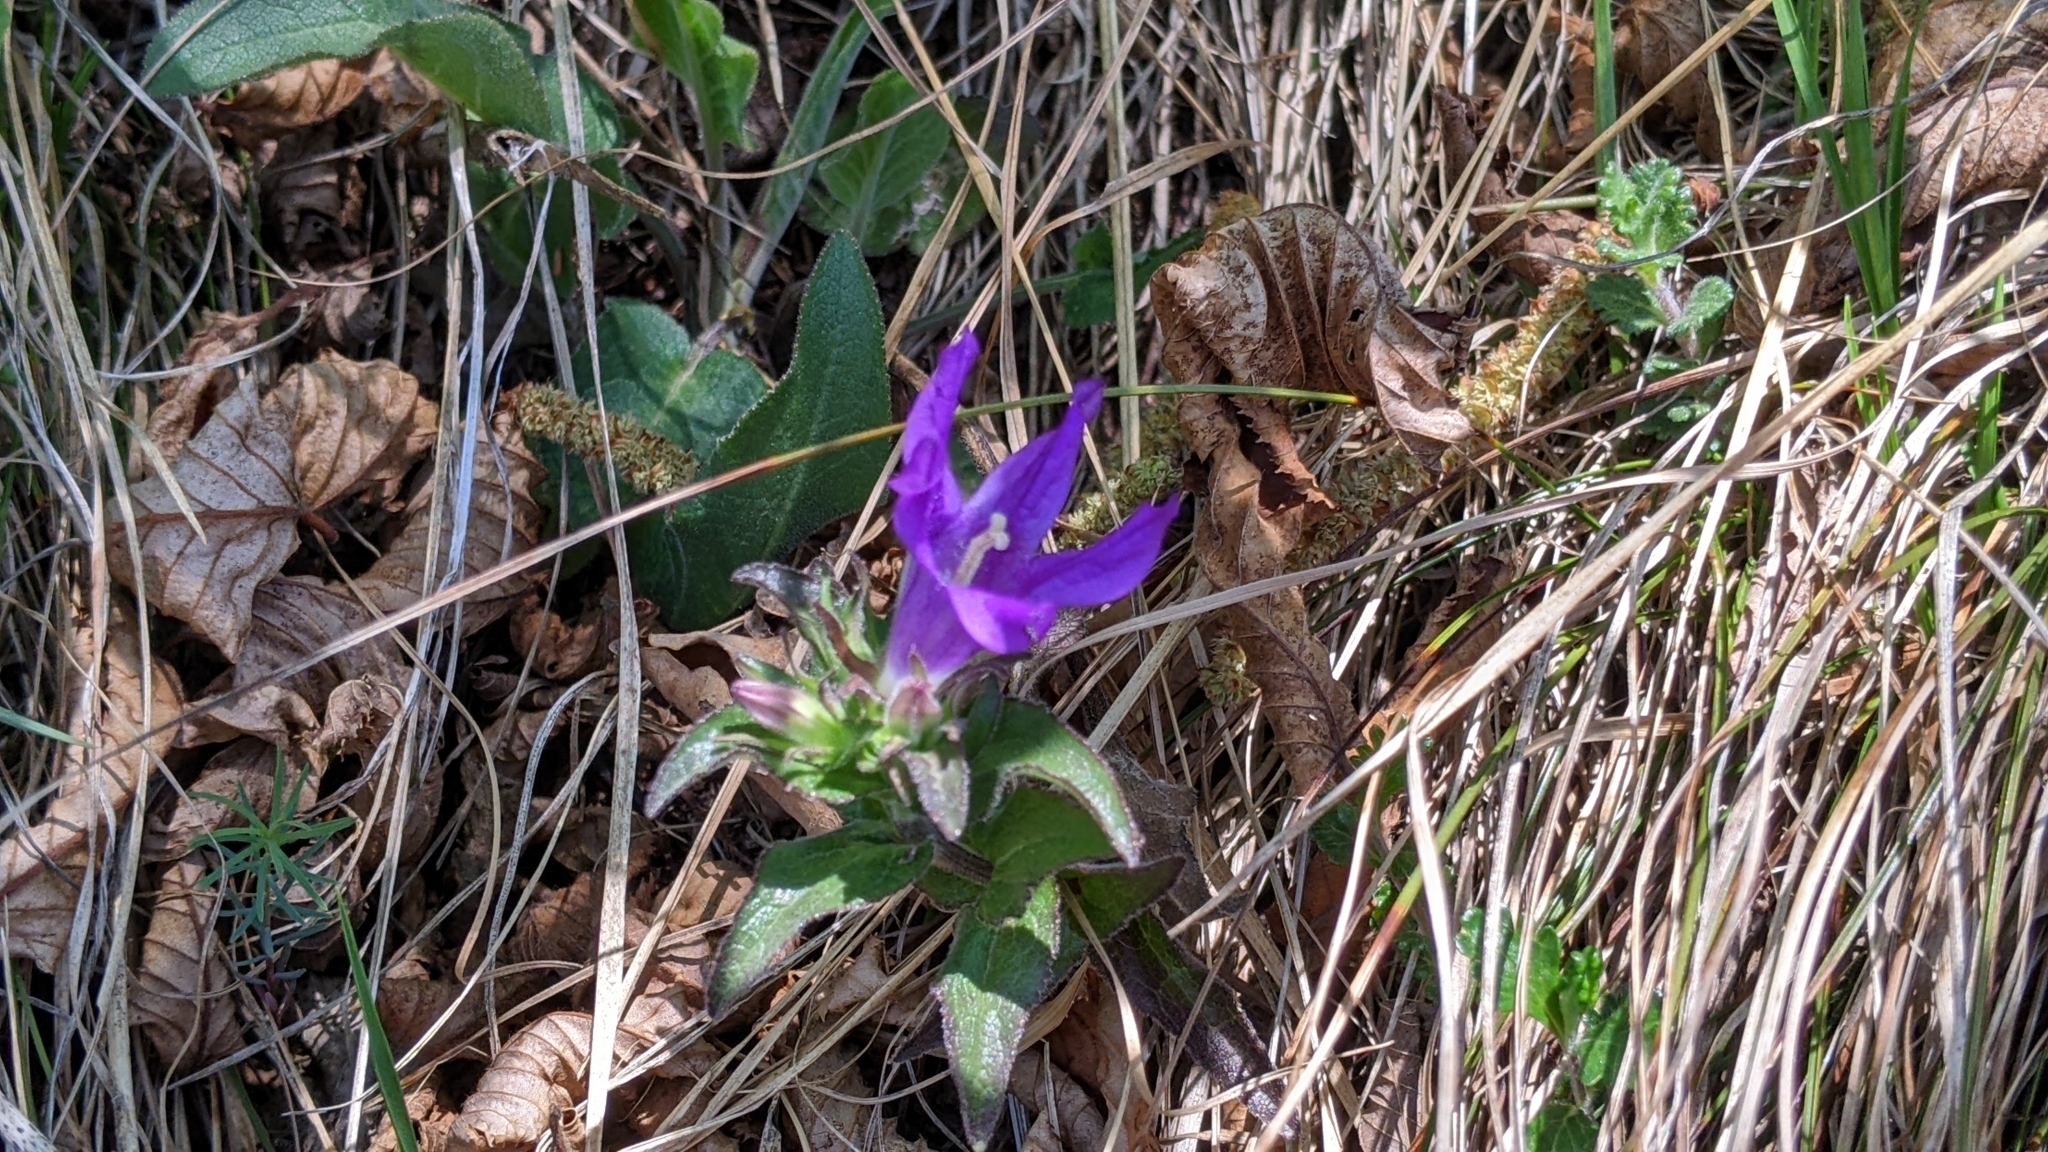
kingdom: Plantae
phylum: Tracheophyta
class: Magnoliopsida
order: Asterales
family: Campanulaceae
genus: Campanula
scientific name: Campanula glomerata
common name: Clustered bellflower
